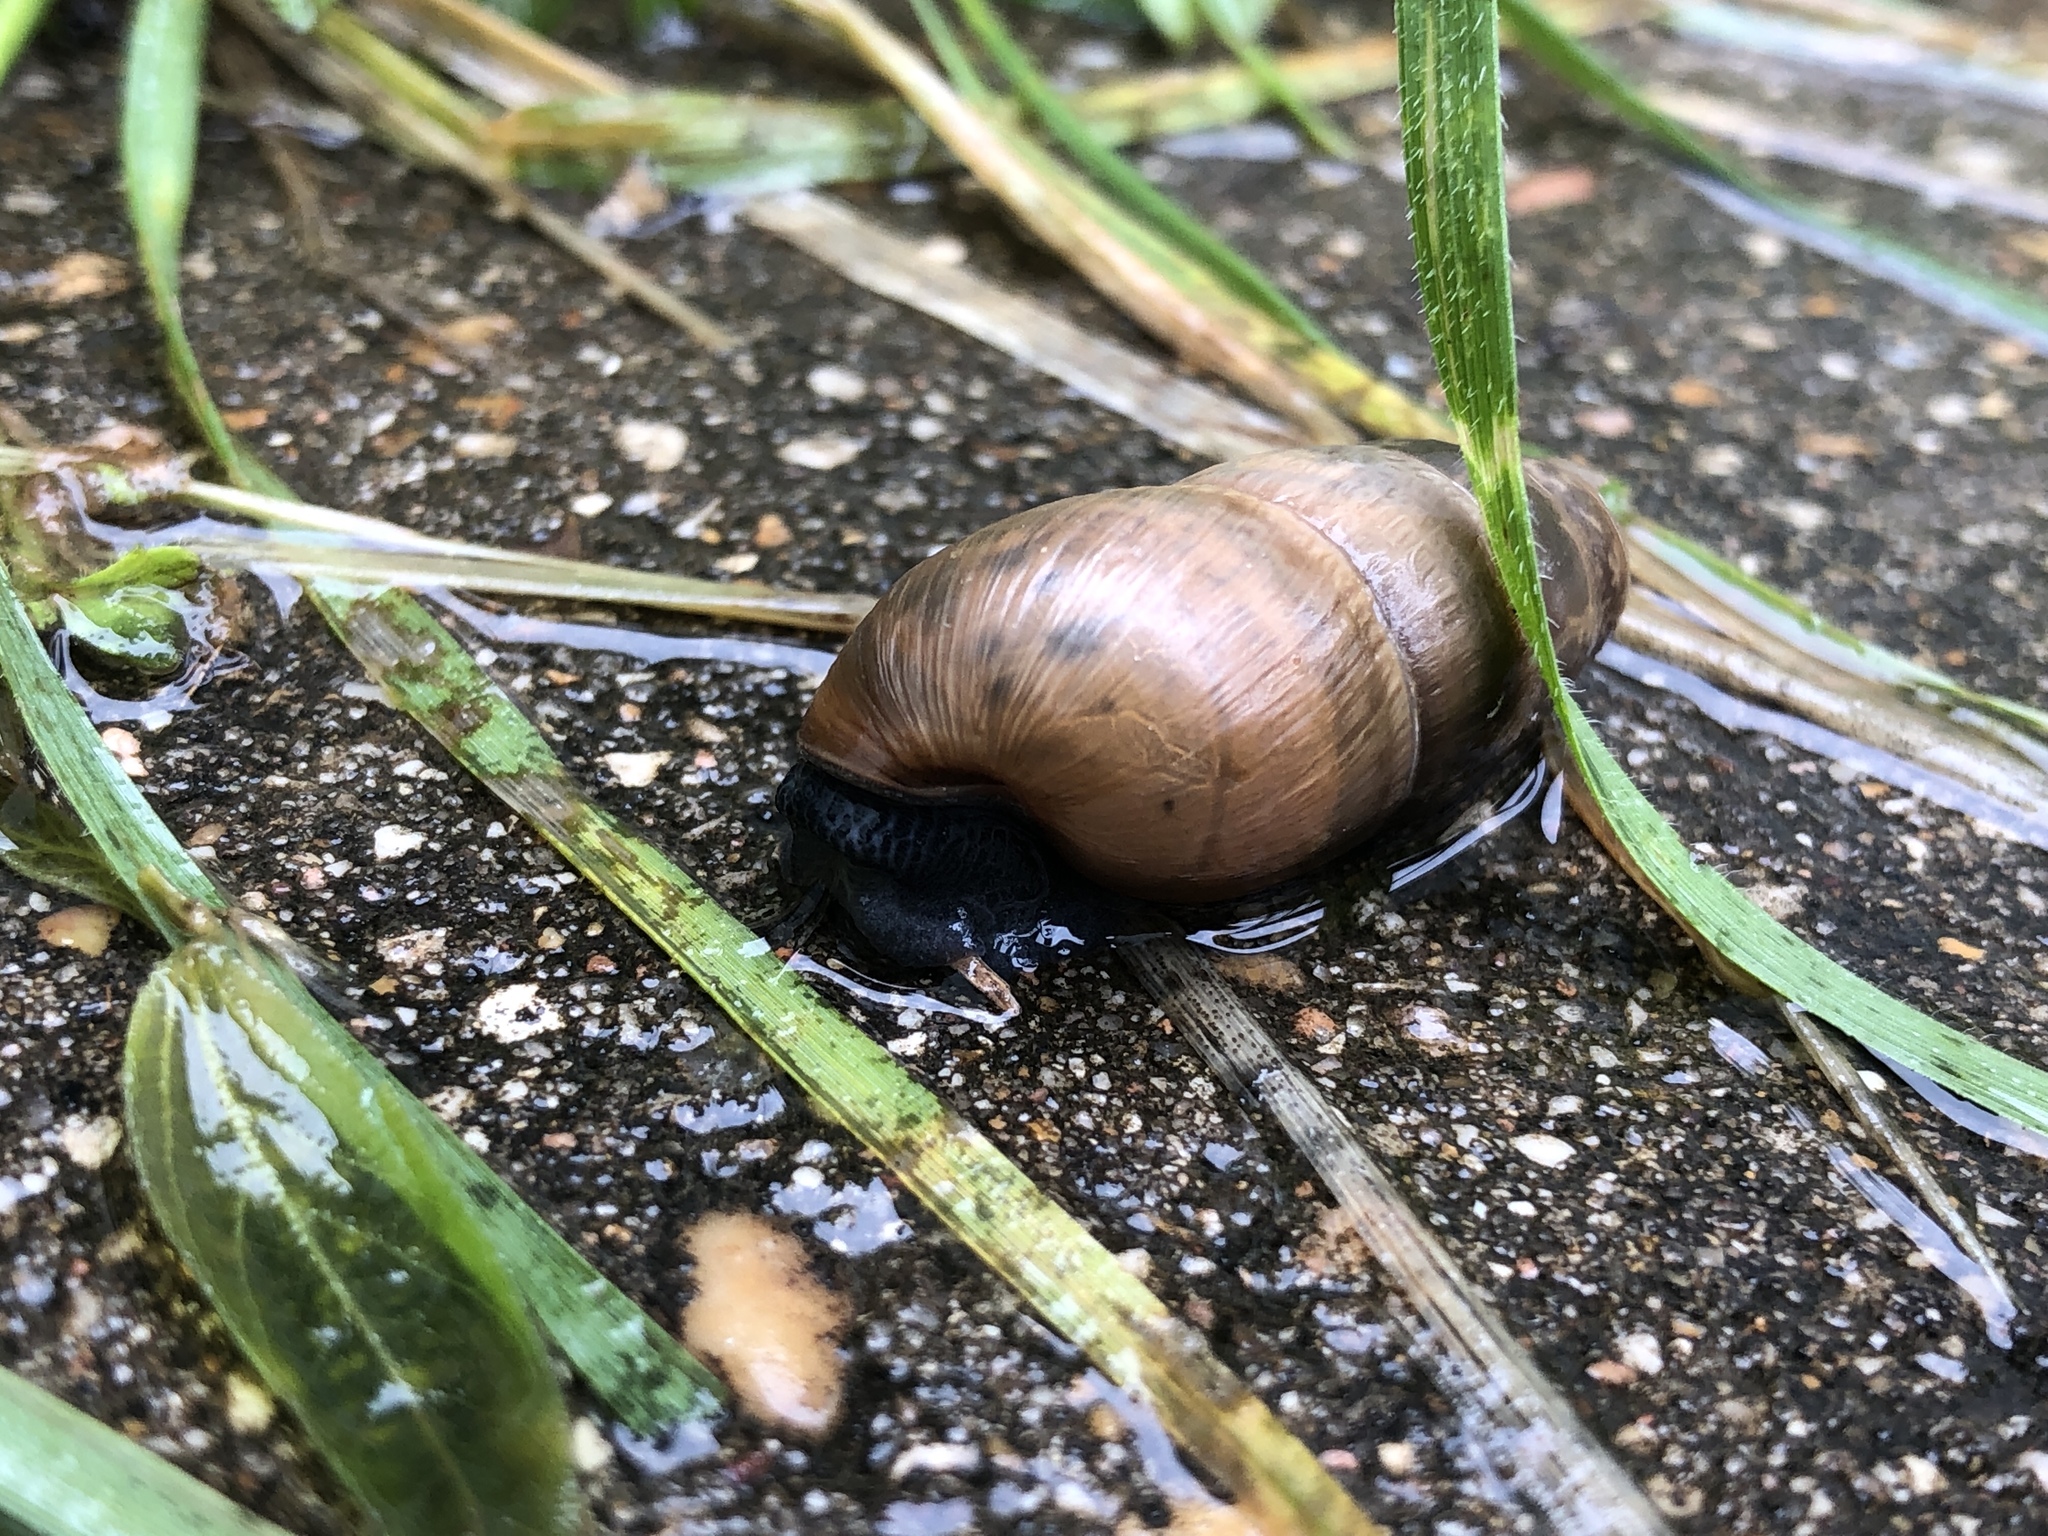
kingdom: Animalia
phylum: Mollusca
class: Gastropoda
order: Stylommatophora
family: Achatinidae
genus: Rumina
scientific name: Rumina decollata
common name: Decollate snail
